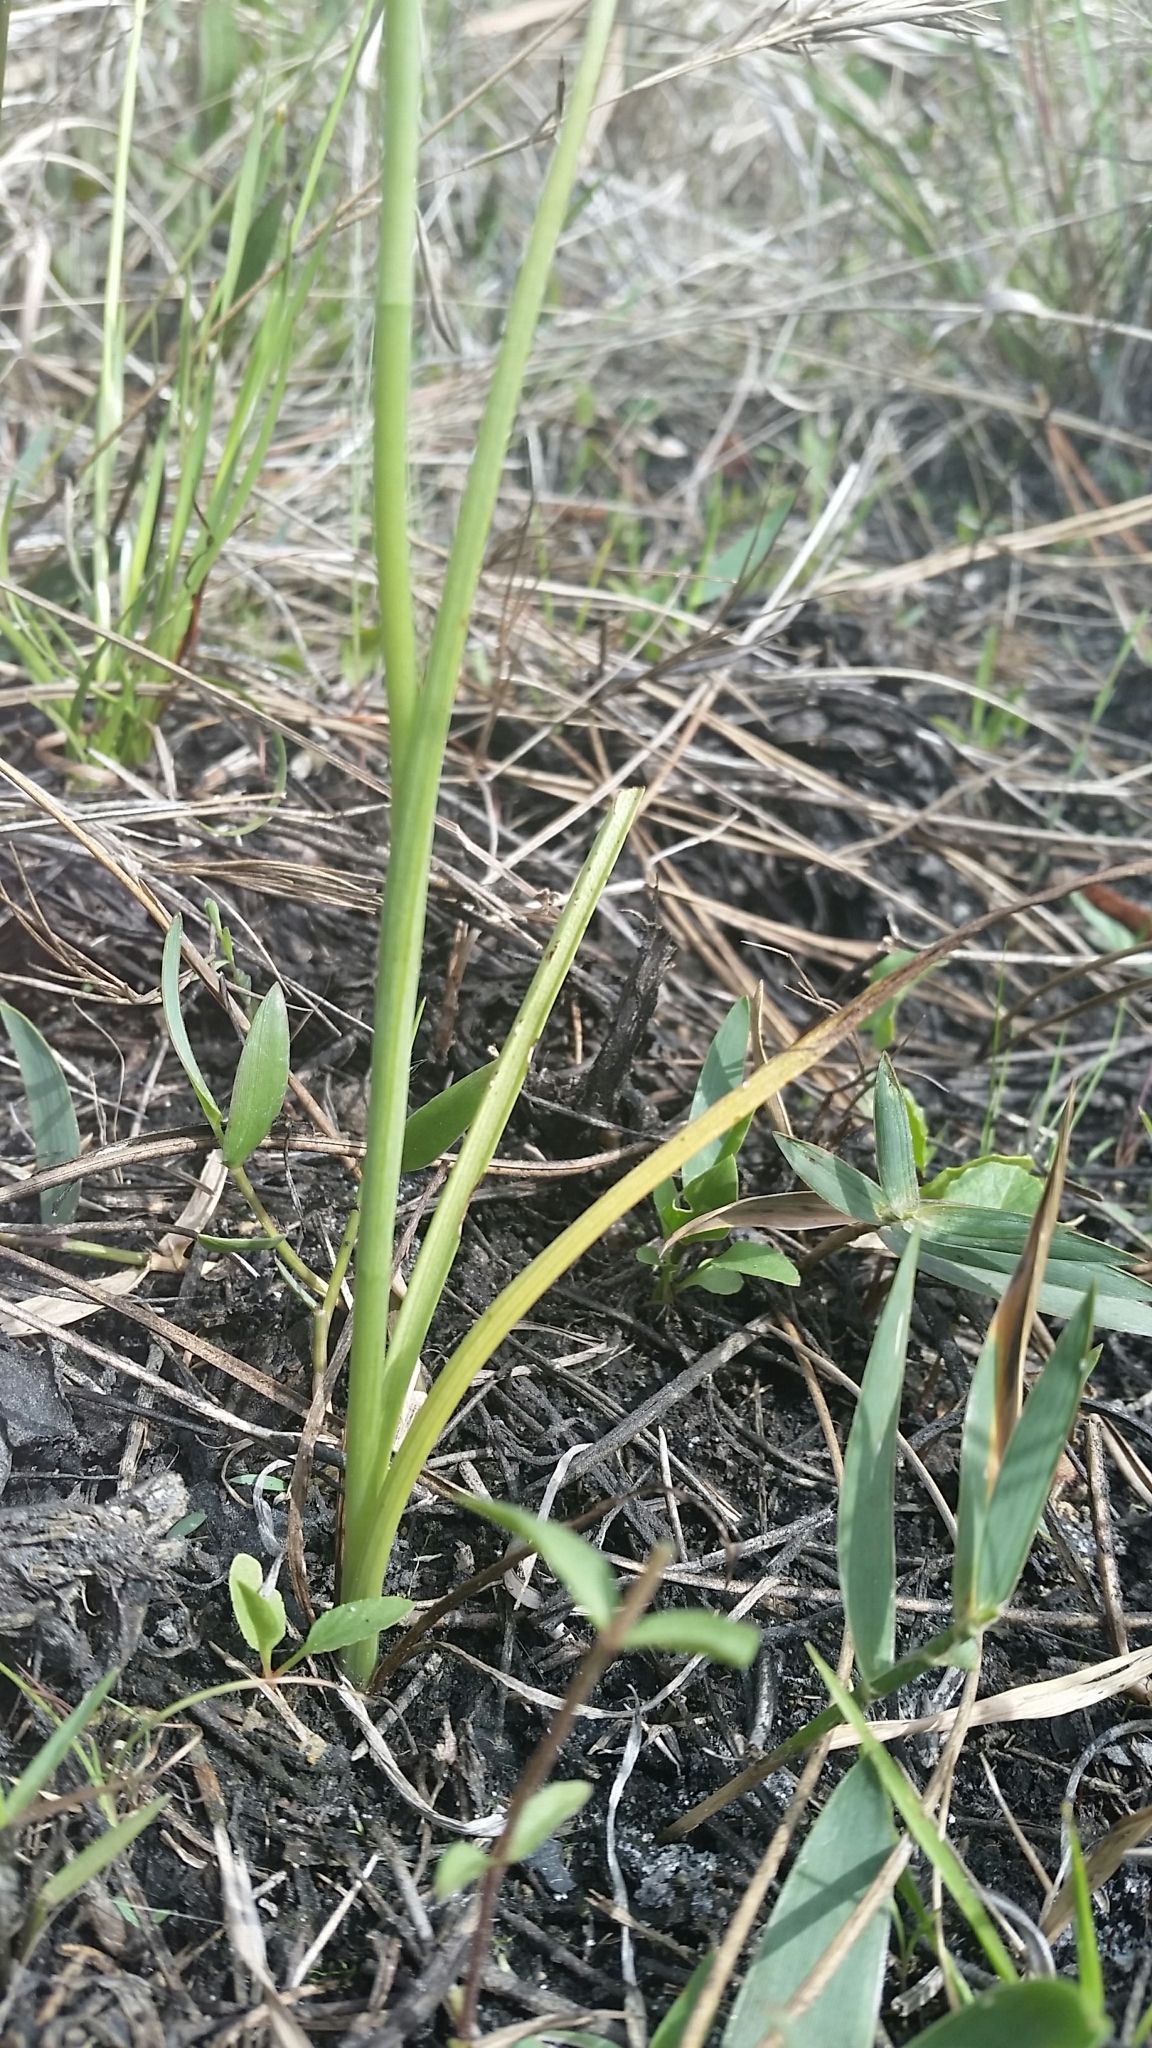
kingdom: Plantae
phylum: Tracheophyta
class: Liliopsida
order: Asparagales
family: Orchidaceae
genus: Spiranthes
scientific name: Spiranthes vernalis
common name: Spring ladies'-tresses
